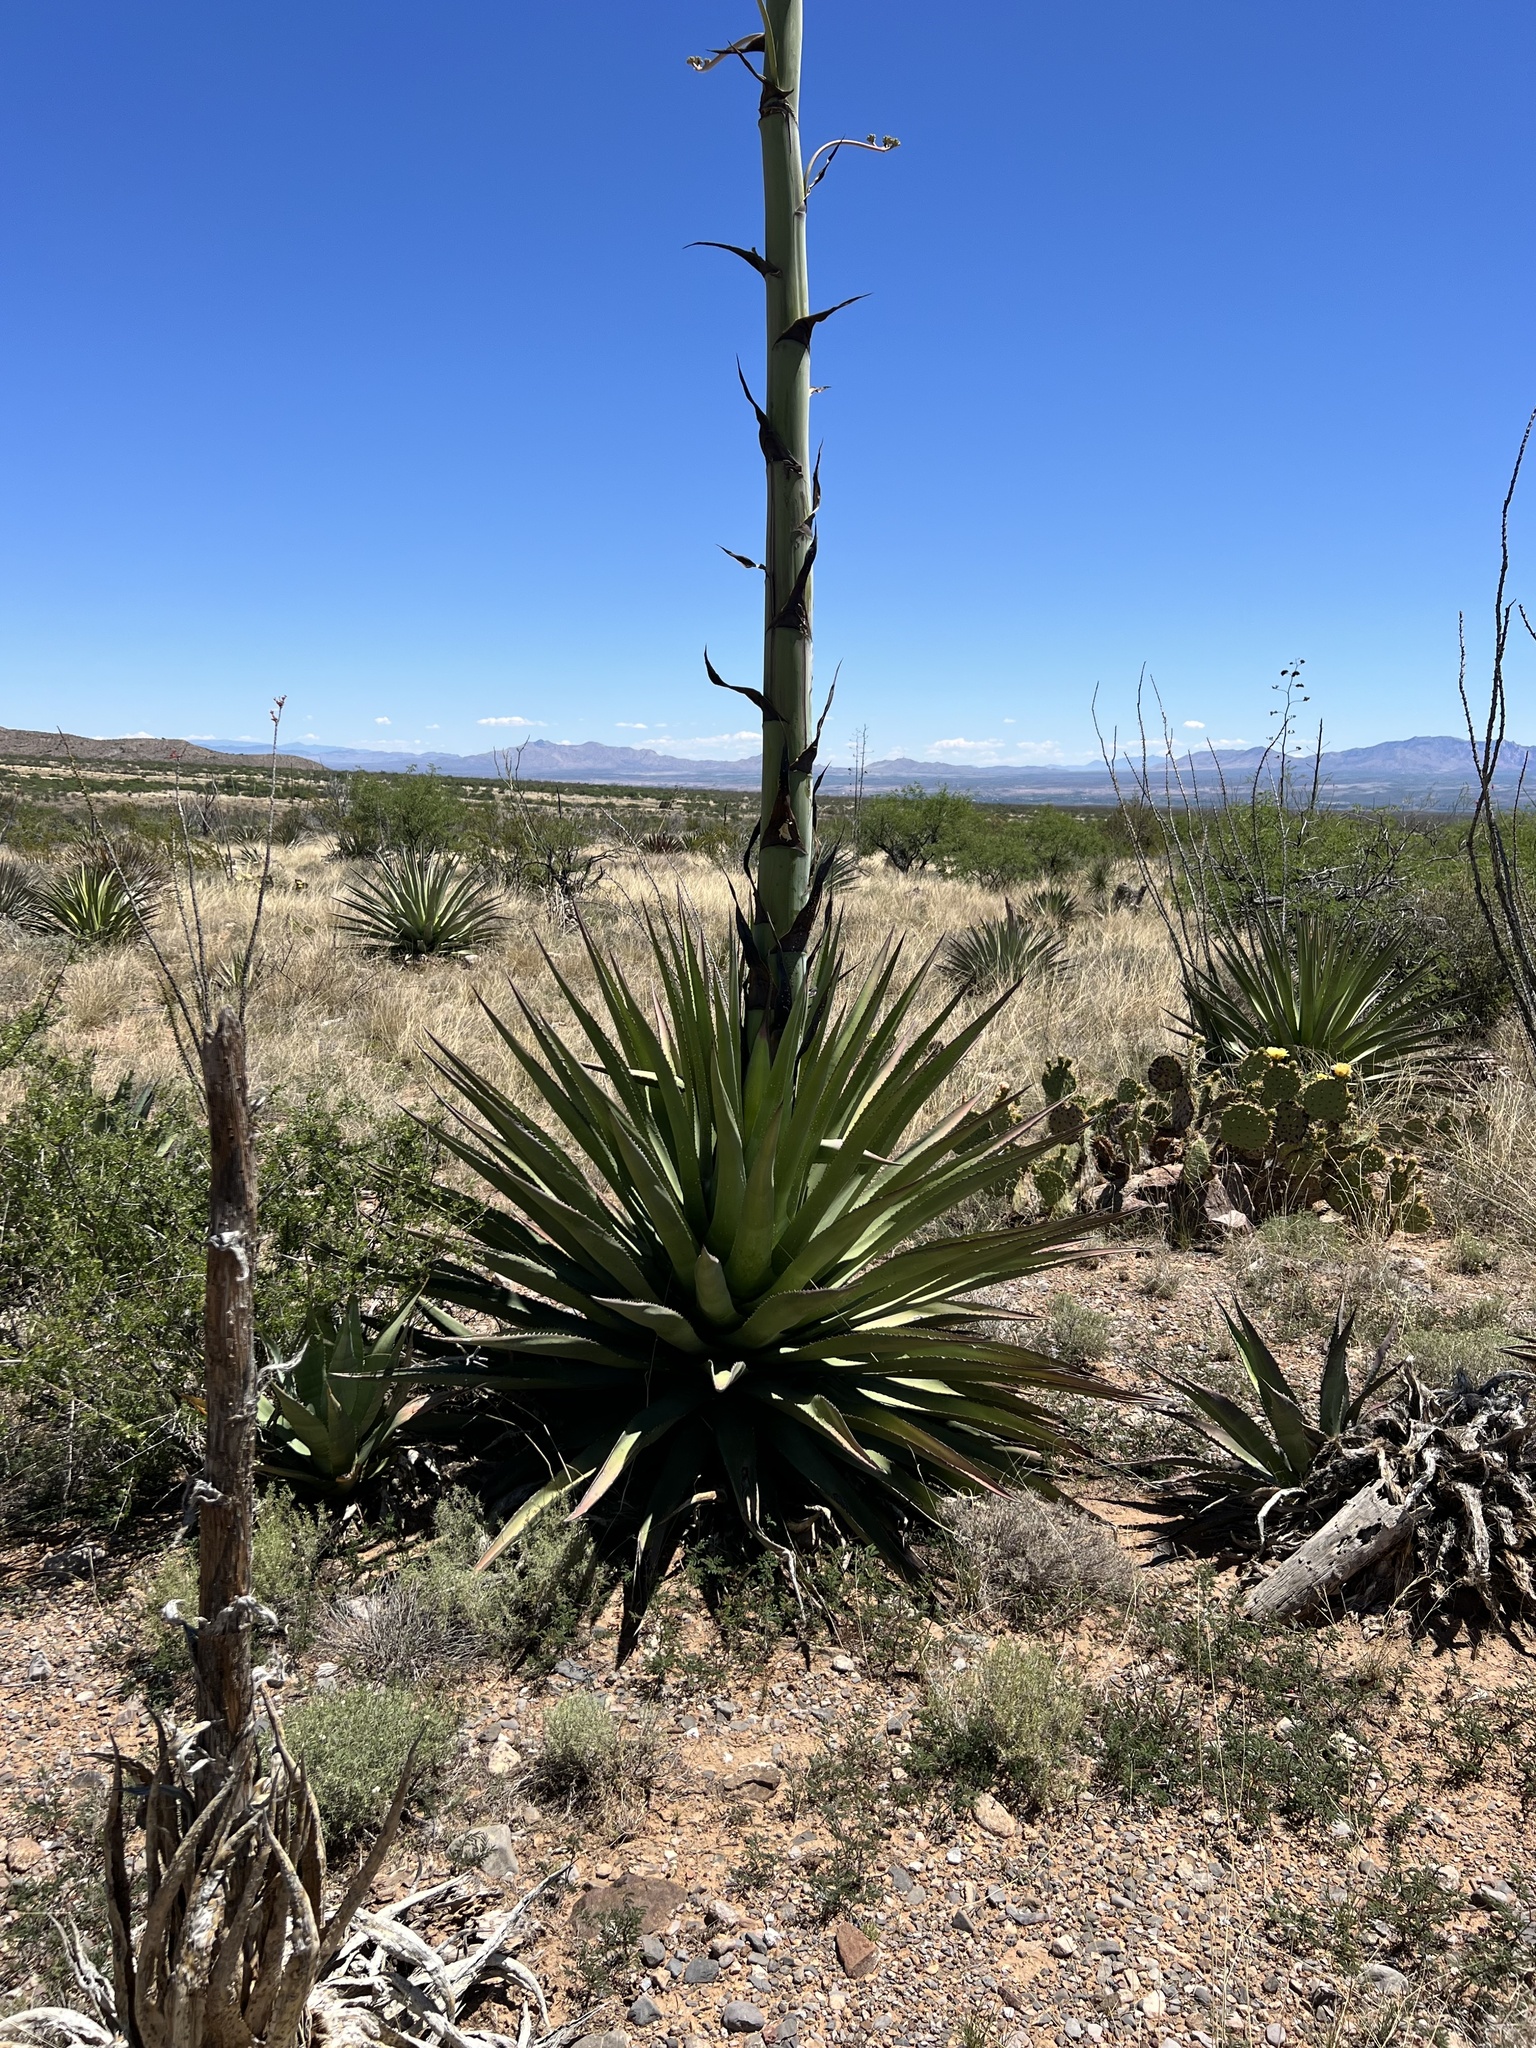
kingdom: Plantae
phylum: Tracheophyta
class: Liliopsida
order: Asparagales
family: Asparagaceae
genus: Agave
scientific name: Agave palmeri
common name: Palmer agave
